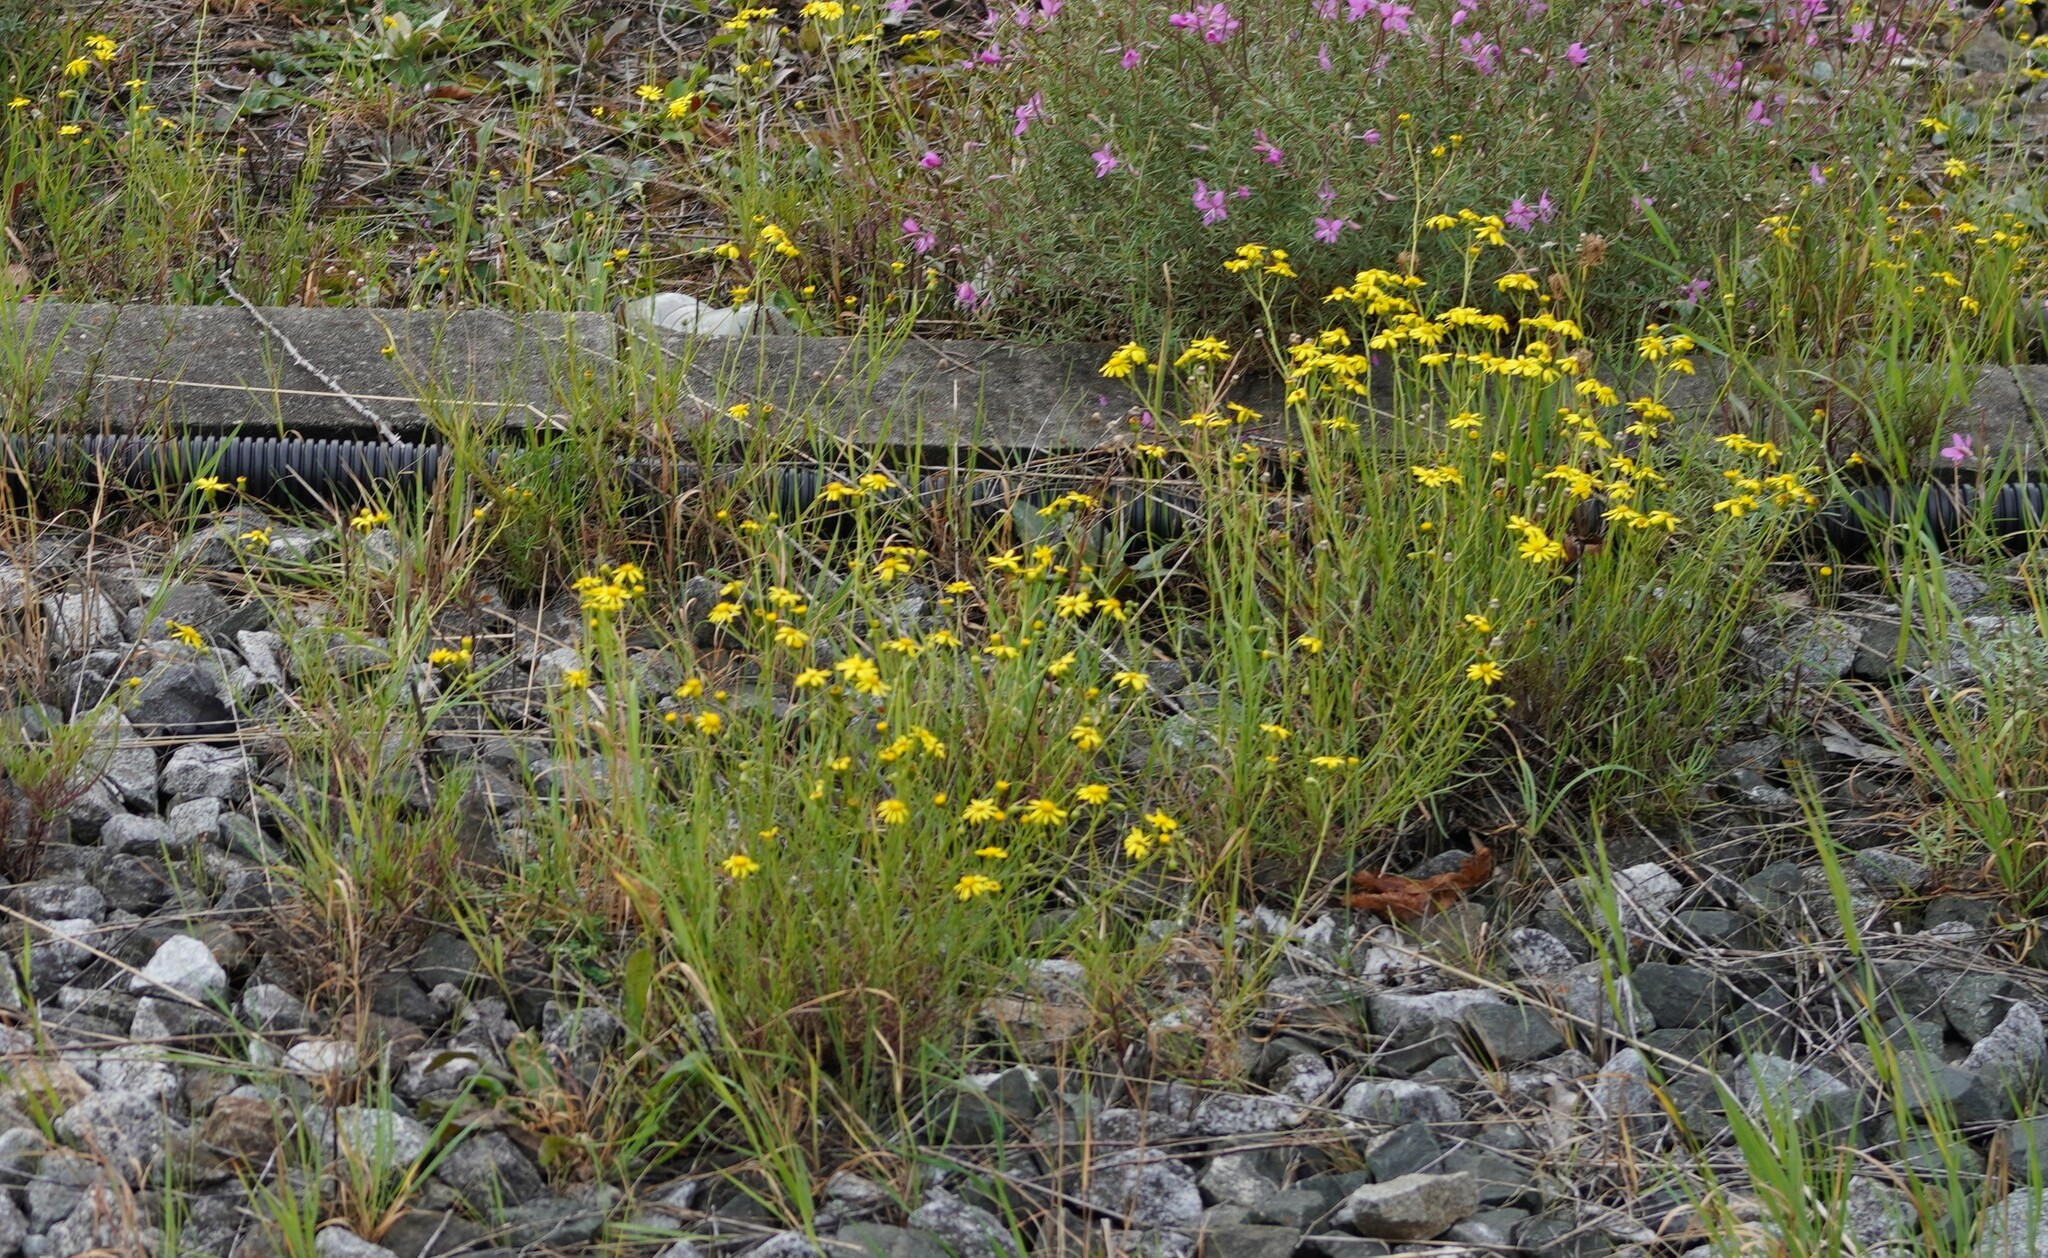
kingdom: Plantae
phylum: Tracheophyta
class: Magnoliopsida
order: Asterales
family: Asteraceae
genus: Senecio
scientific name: Senecio inaequidens
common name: Narrow-leaved ragwort
